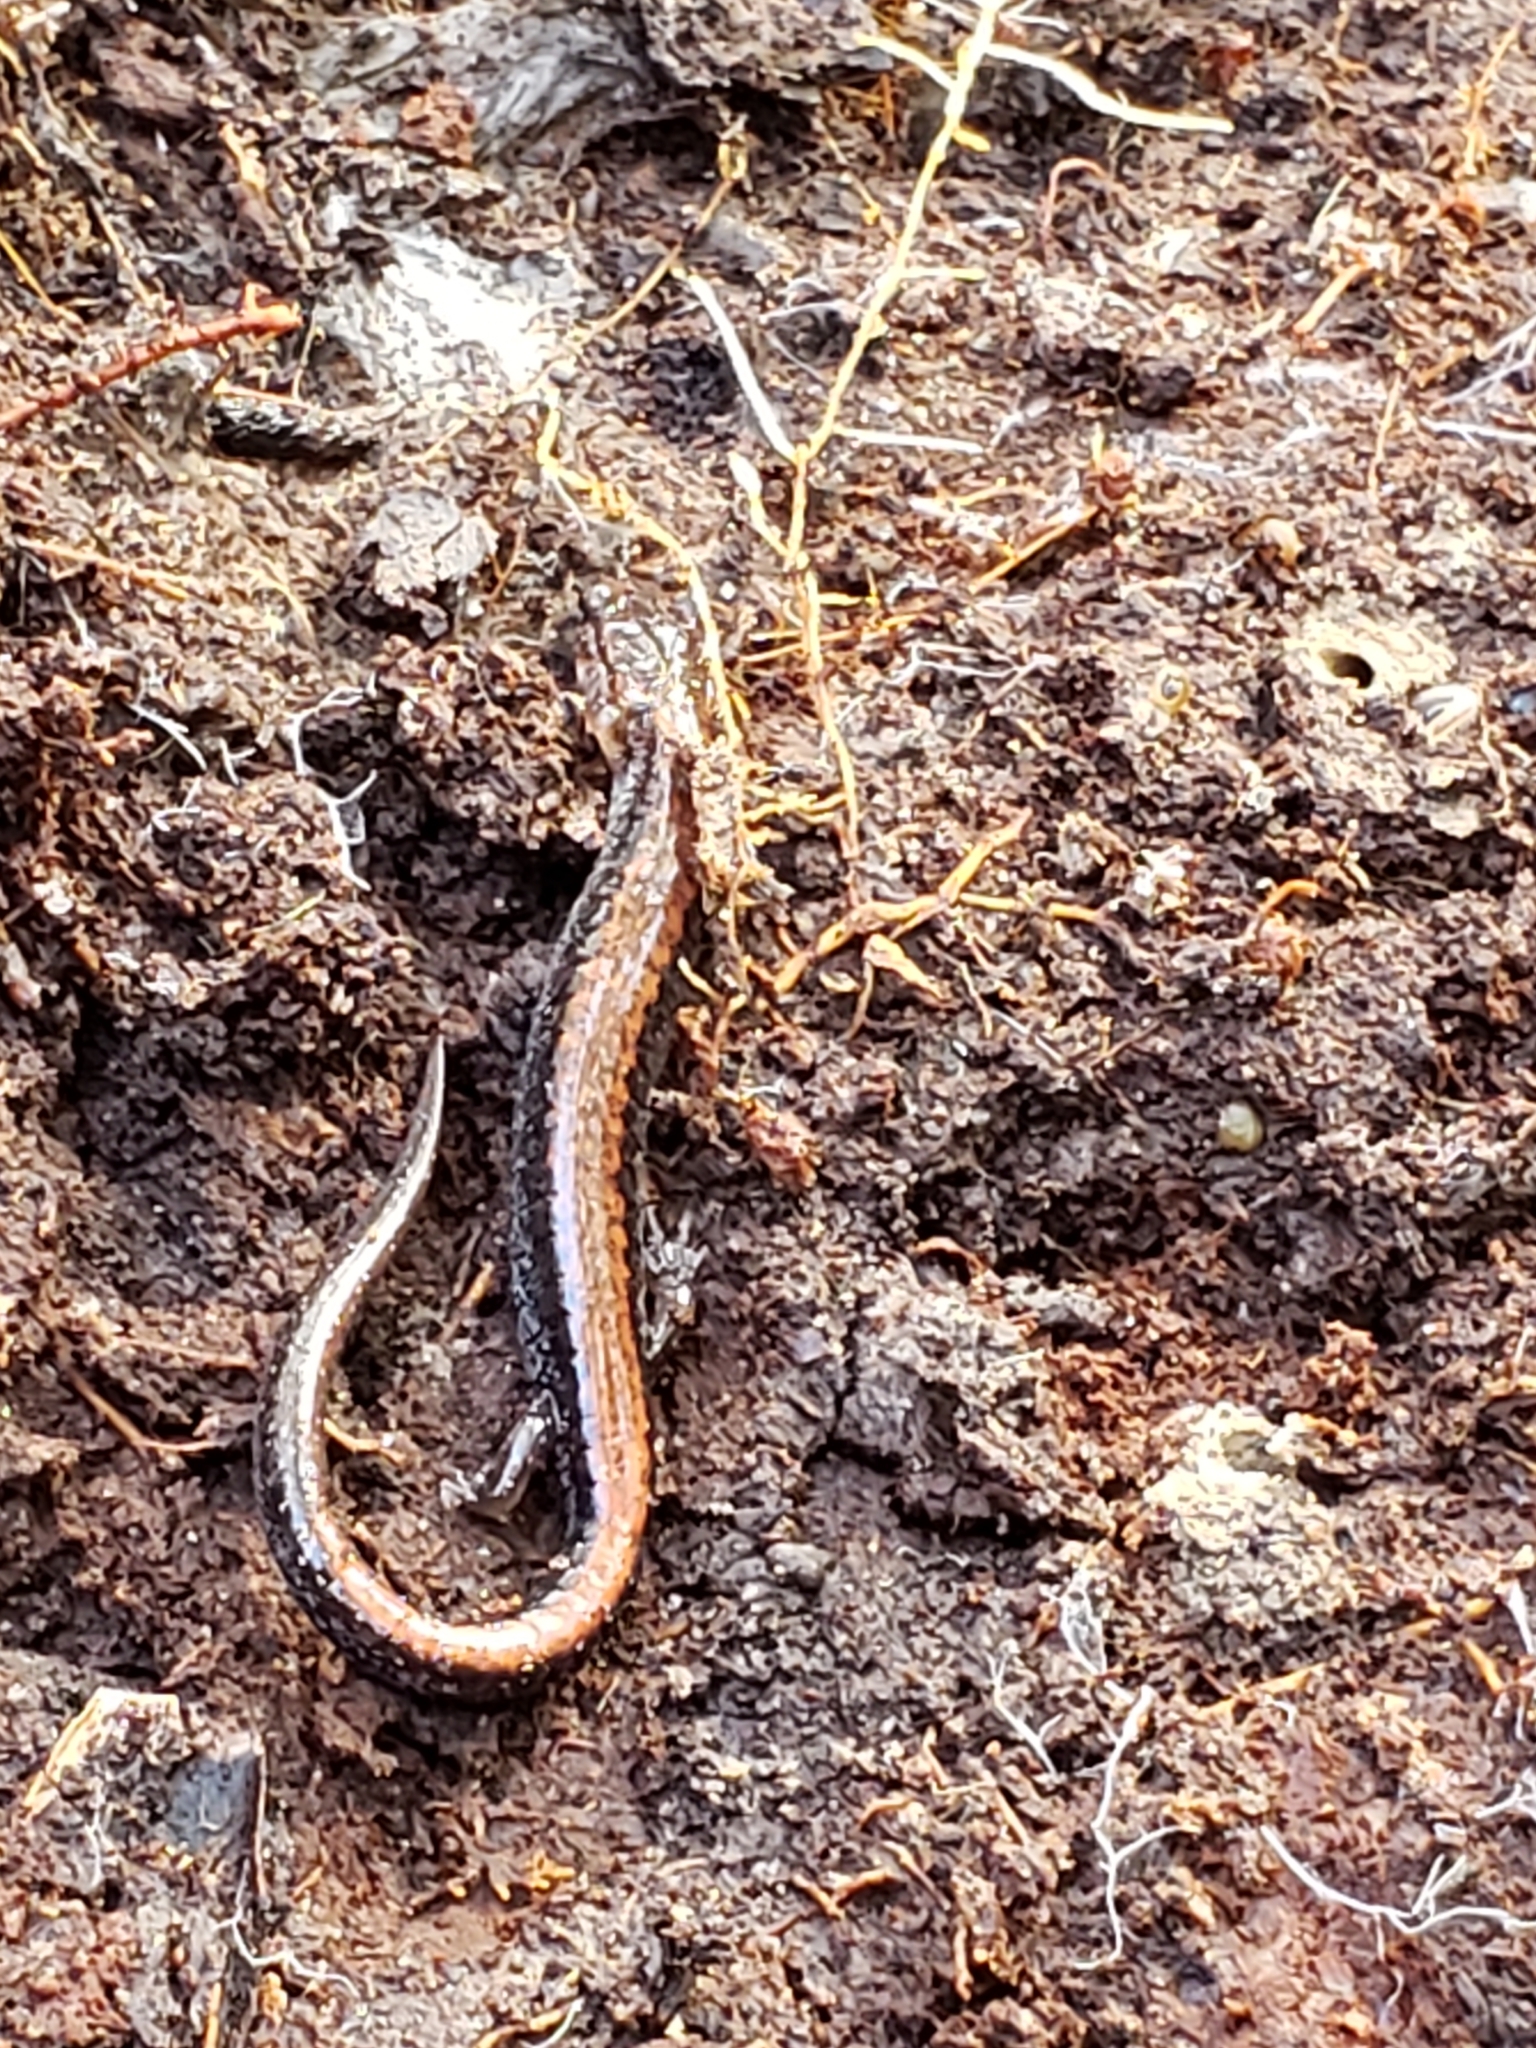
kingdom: Animalia
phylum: Chordata
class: Amphibia
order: Caudata
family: Plethodontidae
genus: Plethodon
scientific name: Plethodon cinereus
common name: Redback salamander
